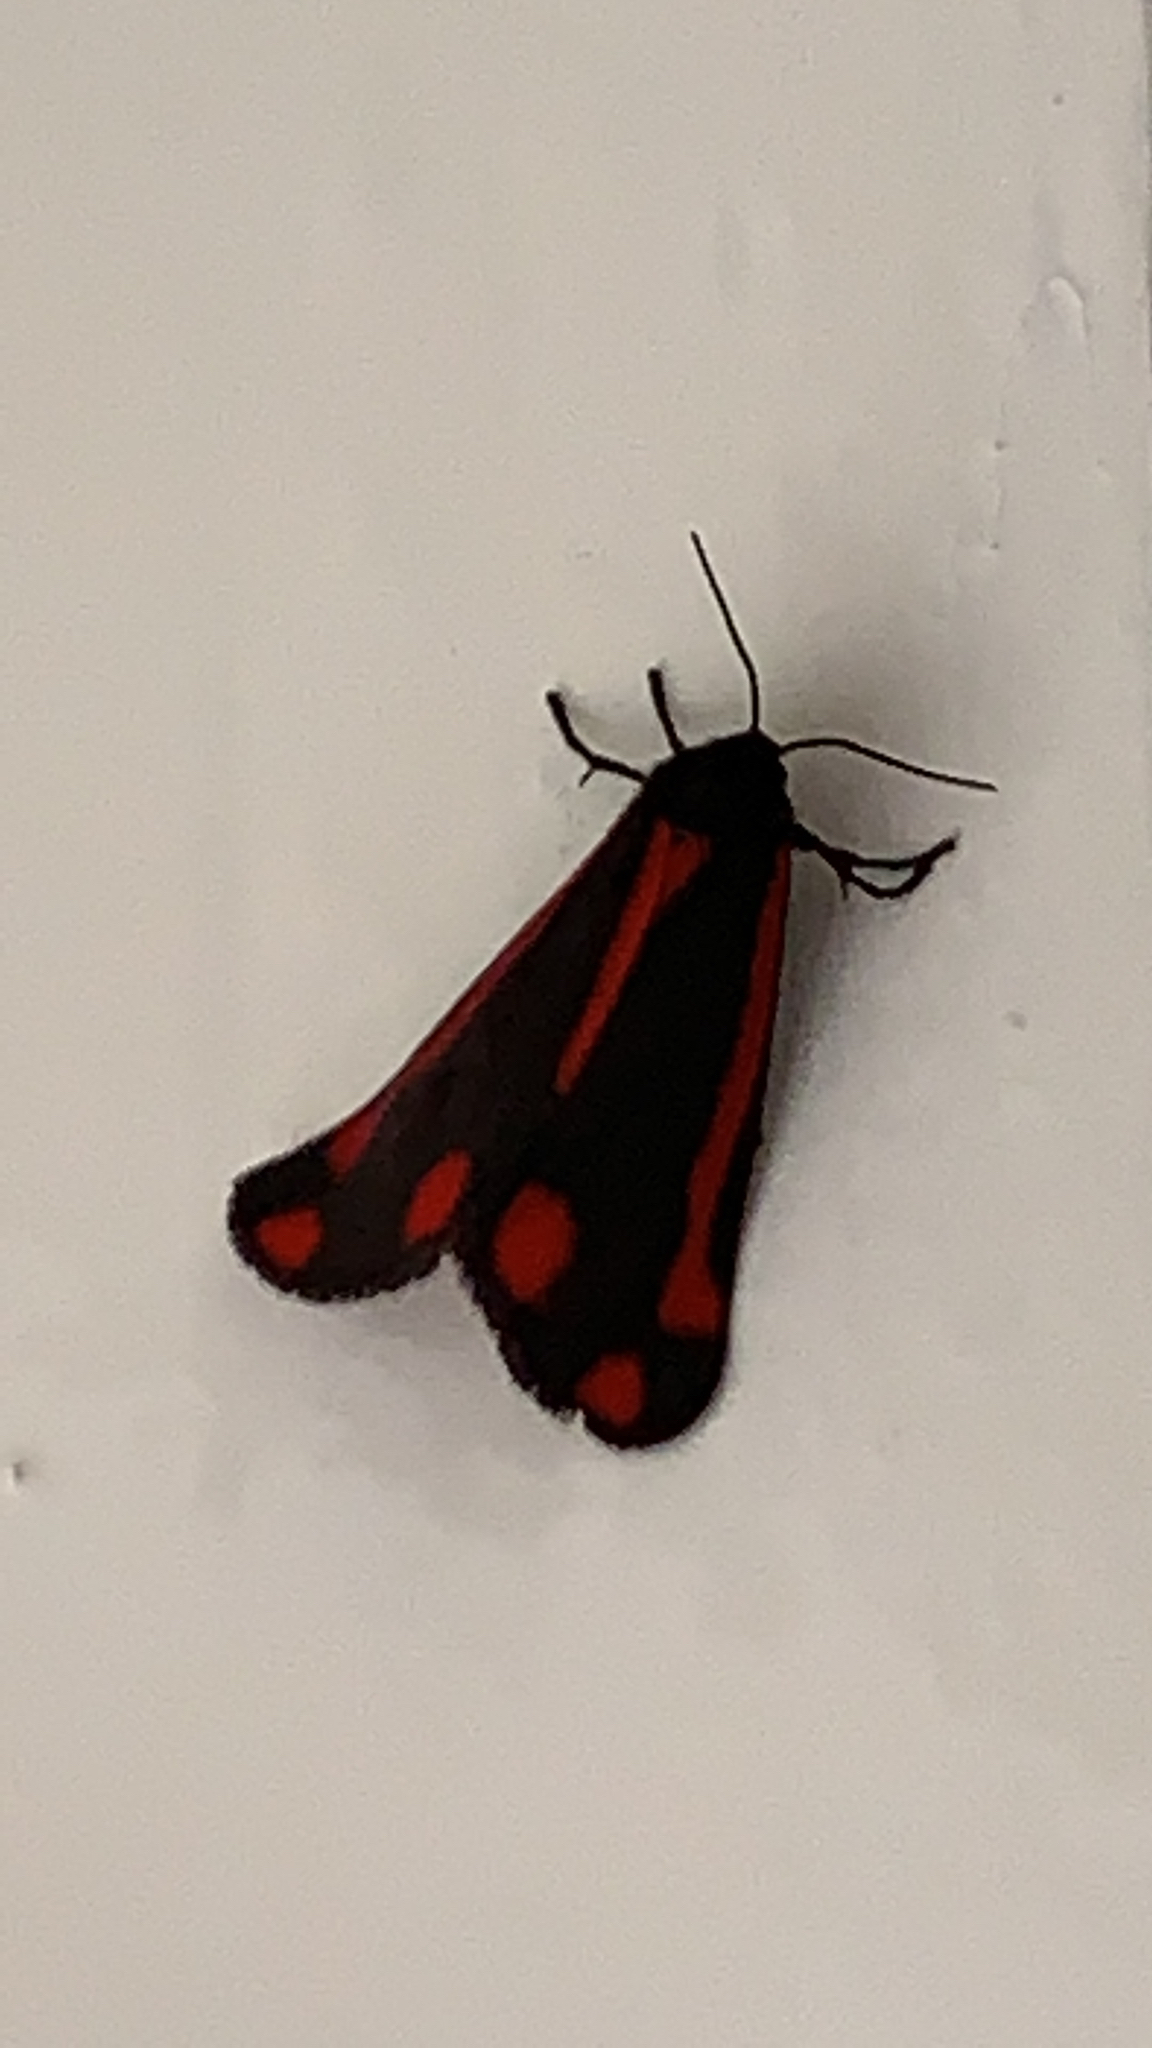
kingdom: Animalia
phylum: Arthropoda
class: Insecta
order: Lepidoptera
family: Erebidae
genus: Tyria
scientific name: Tyria jacobaeae
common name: Cinnabar
